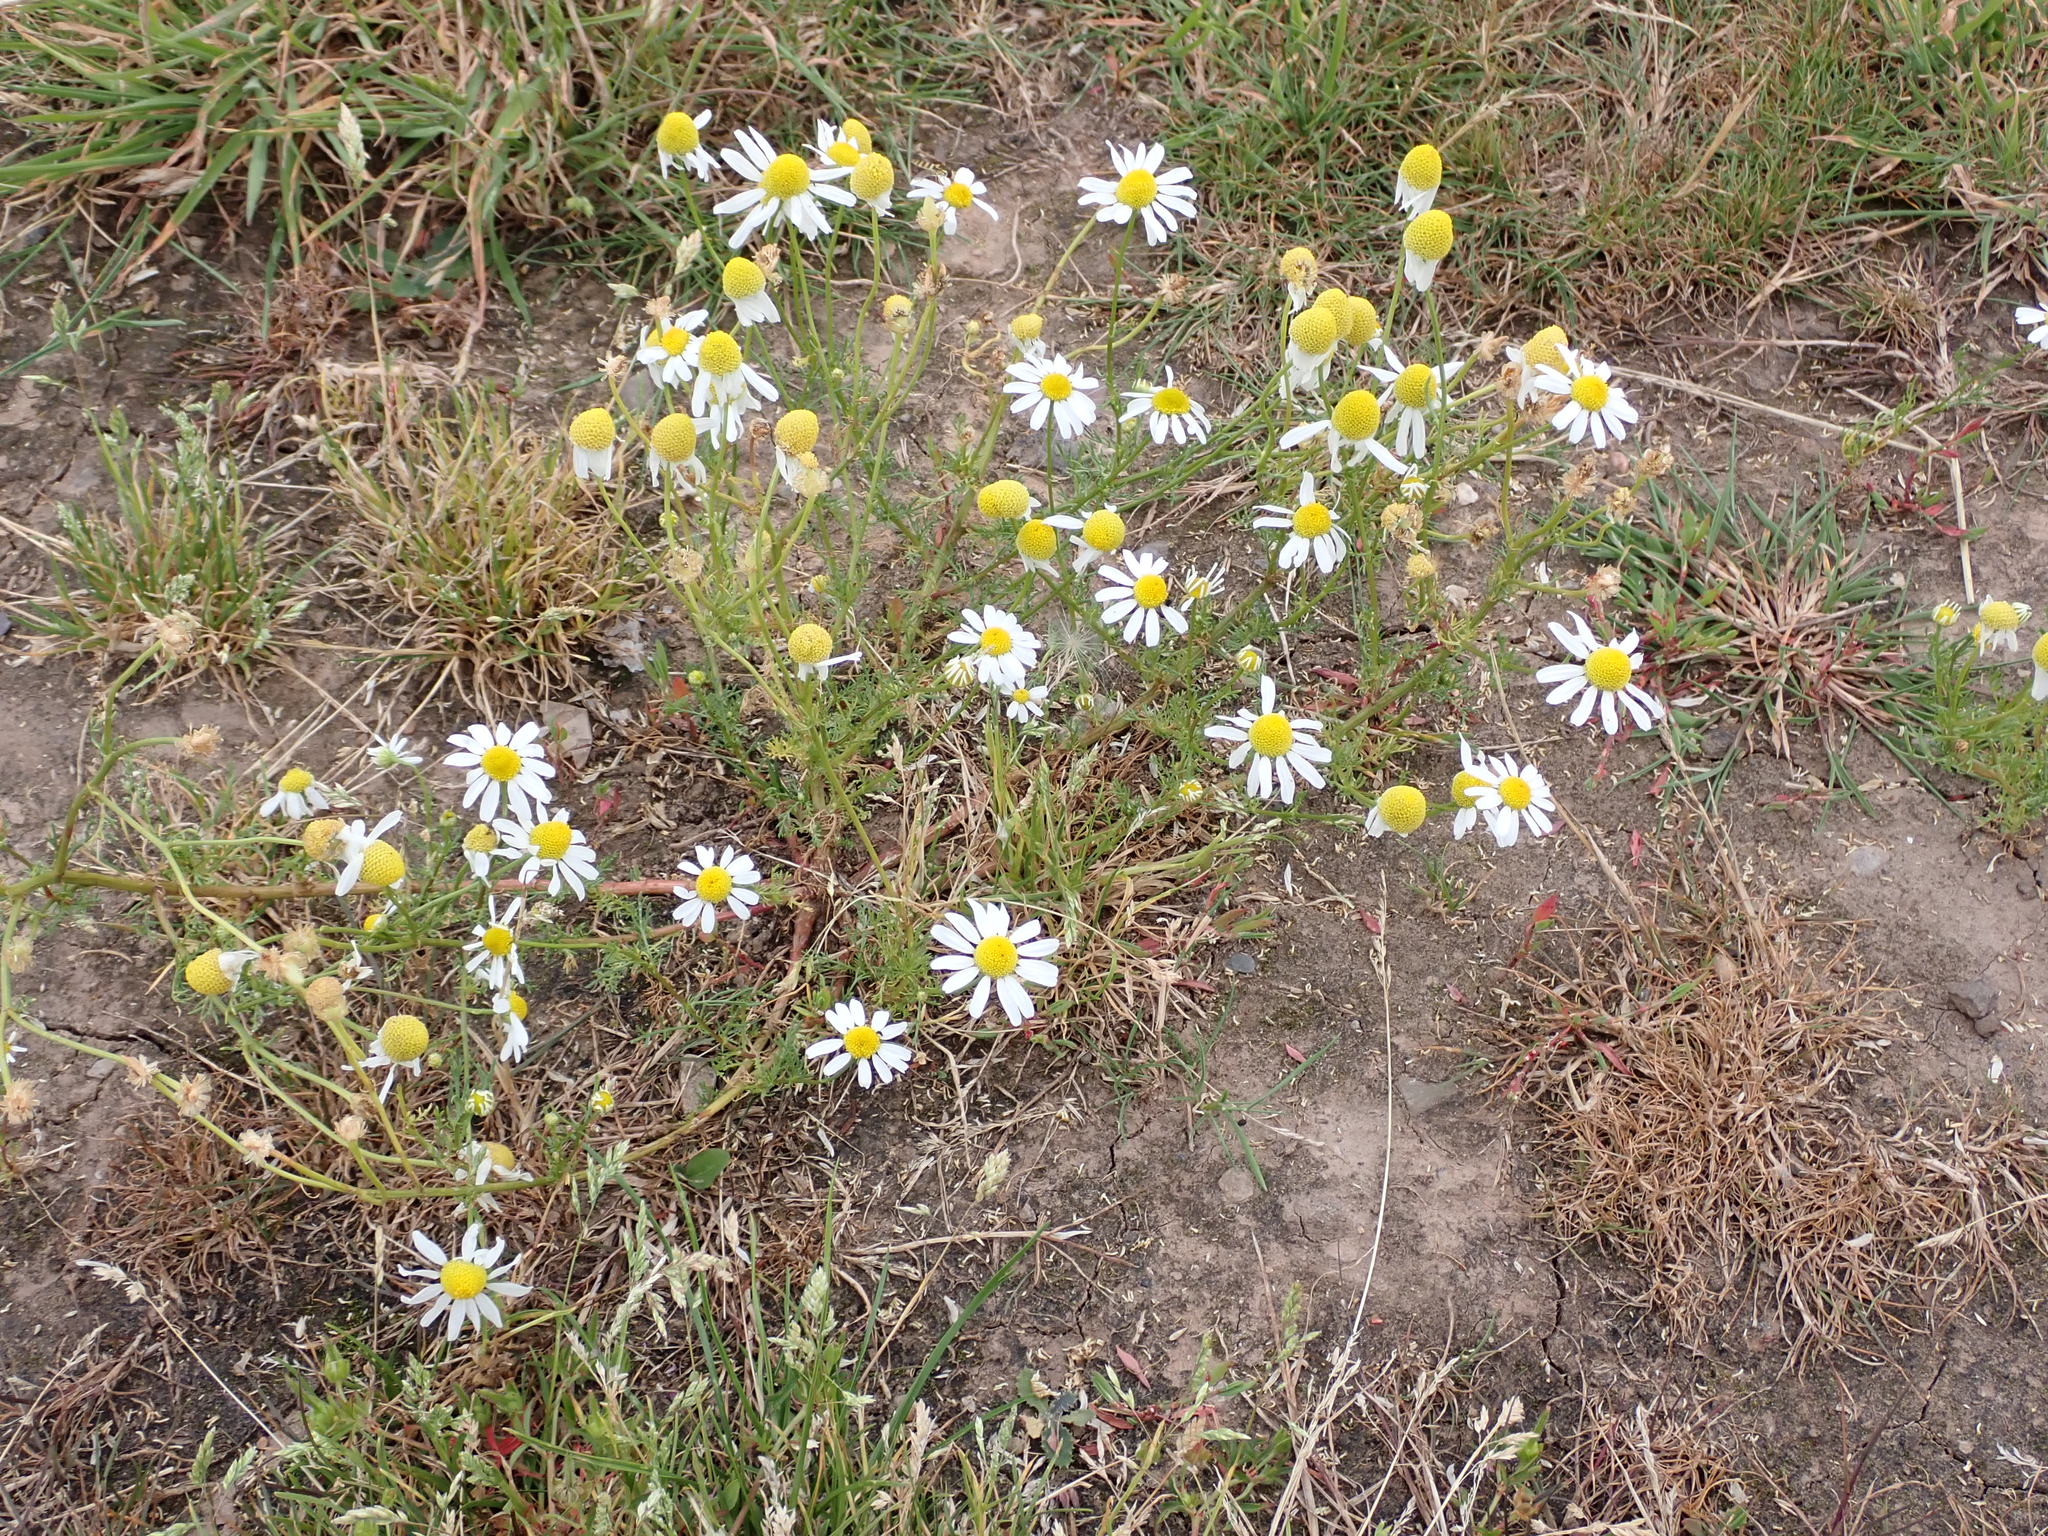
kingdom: Plantae
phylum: Tracheophyta
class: Magnoliopsida
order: Asterales
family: Asteraceae
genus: Tripleurospermum
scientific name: Tripleurospermum inodorum
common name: Scentless mayweed
